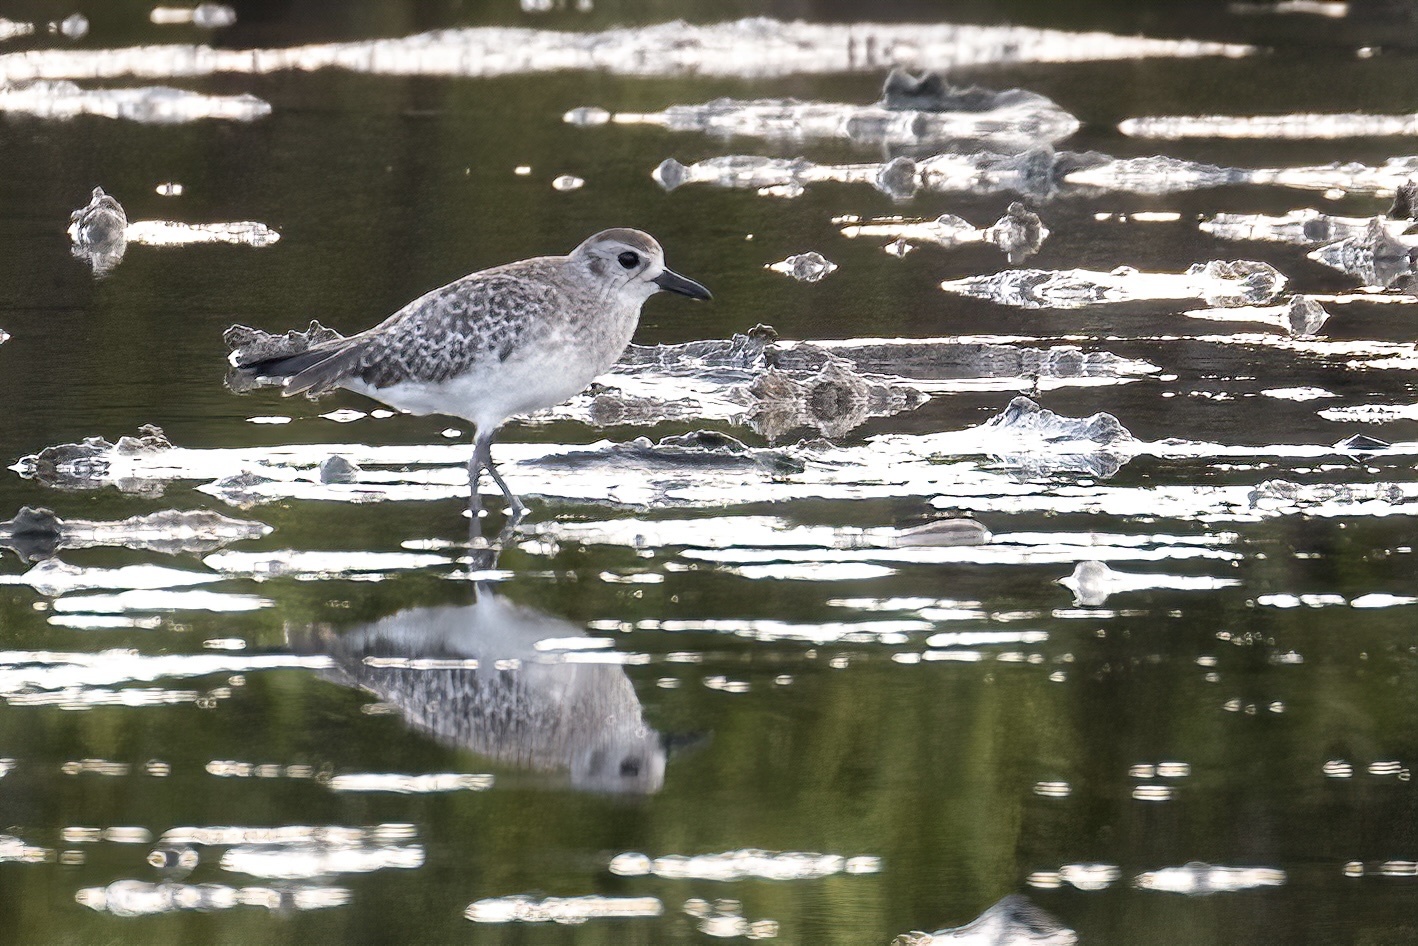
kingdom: Animalia
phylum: Chordata
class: Aves
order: Charadriiformes
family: Charadriidae
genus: Pluvialis
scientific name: Pluvialis squatarola
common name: Grey plover
